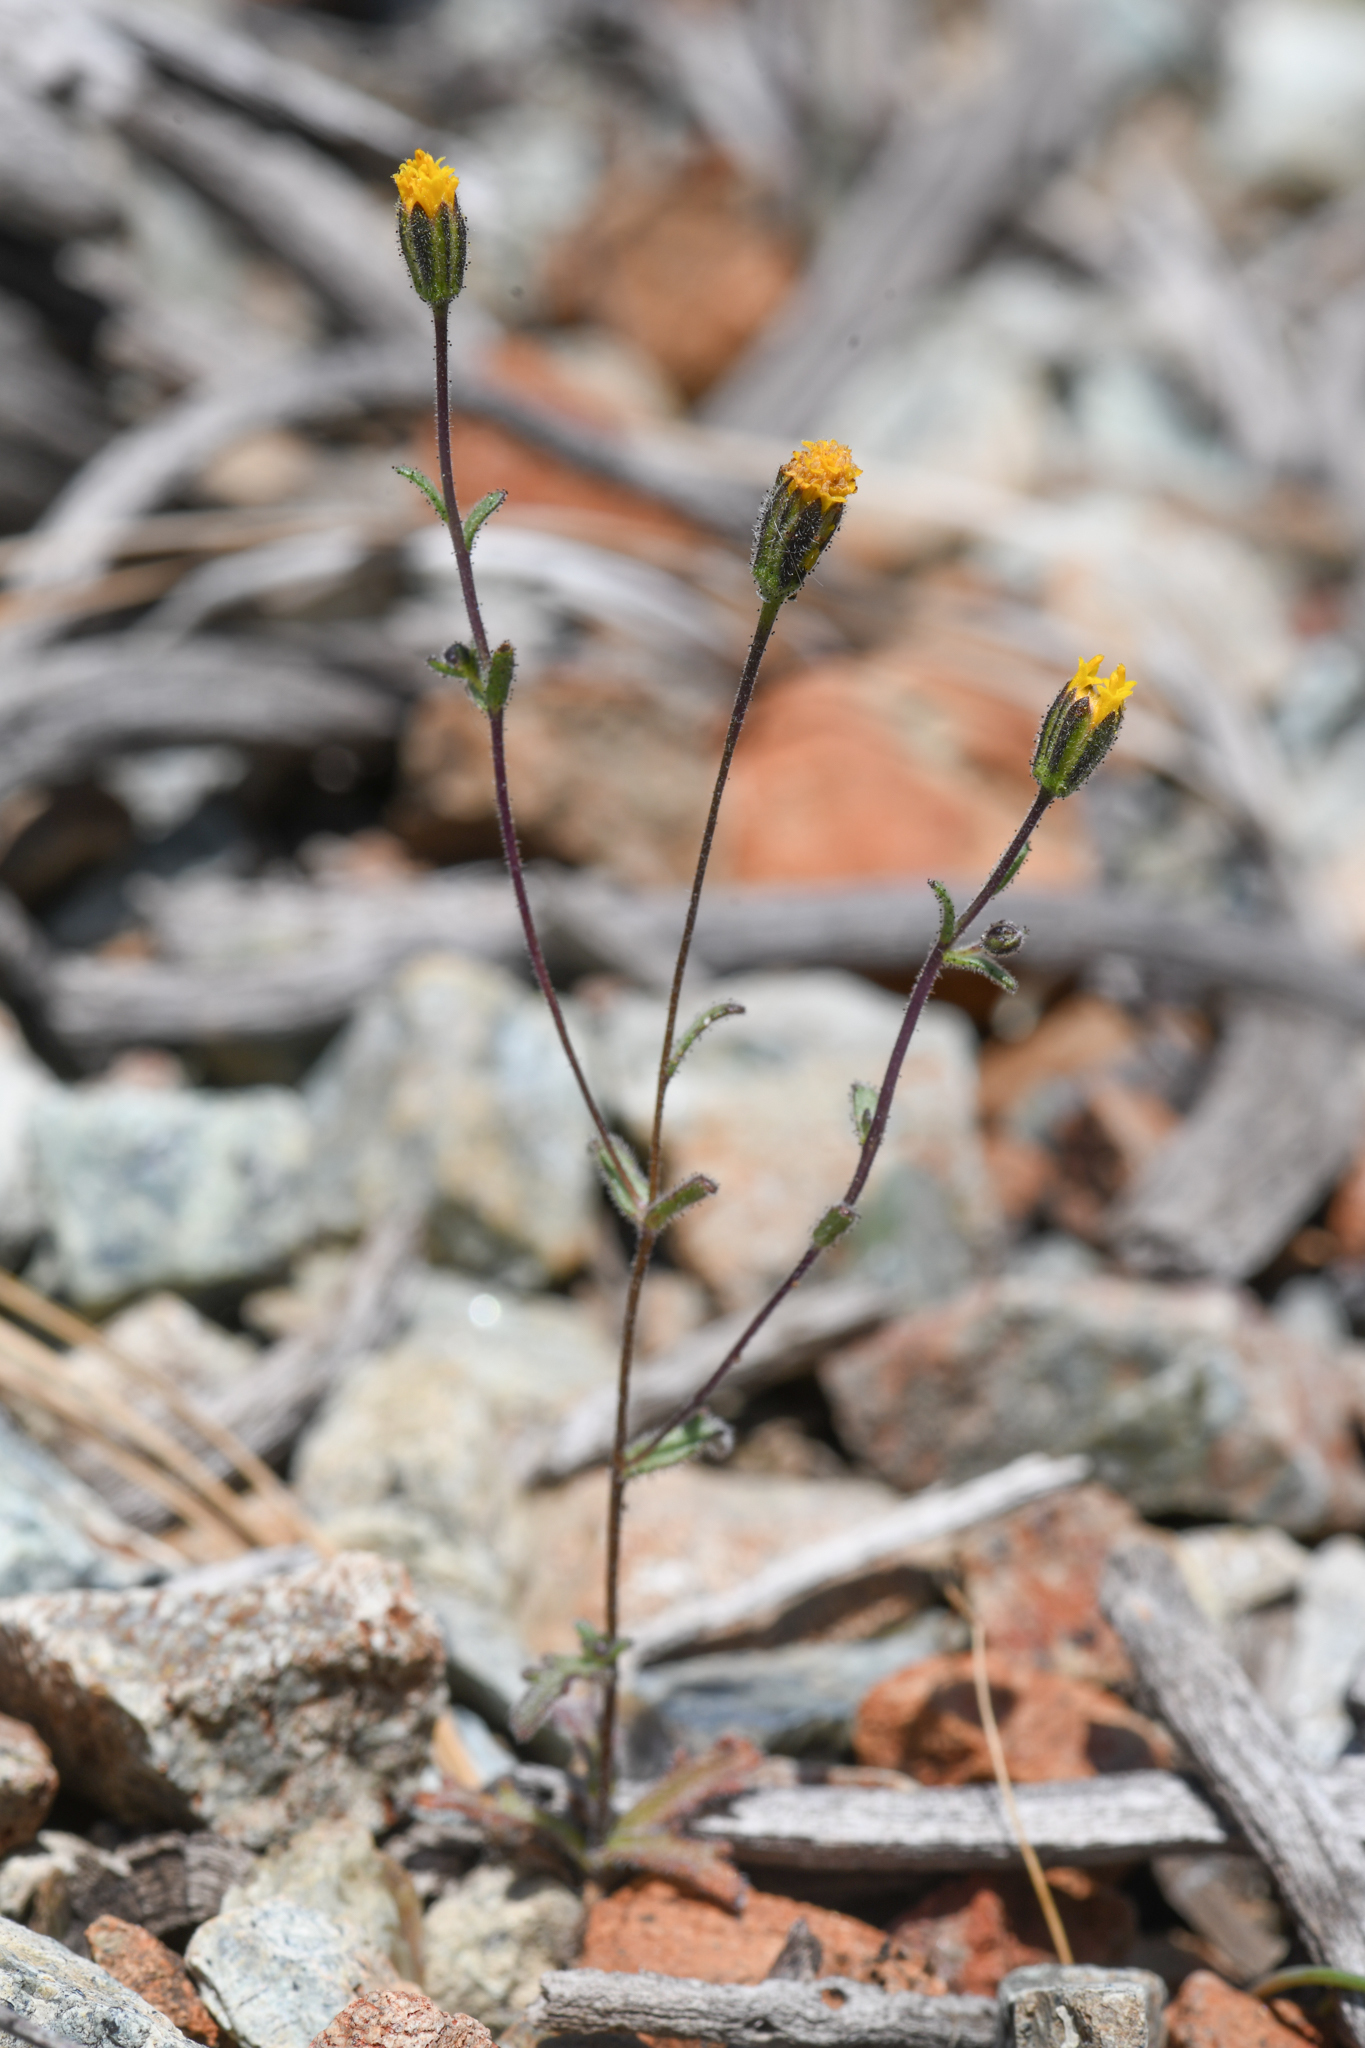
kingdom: Plantae
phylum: Tracheophyta
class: Magnoliopsida
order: Asterales
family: Asteraceae
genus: Layia
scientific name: Layia discoidea
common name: Rayless layia
